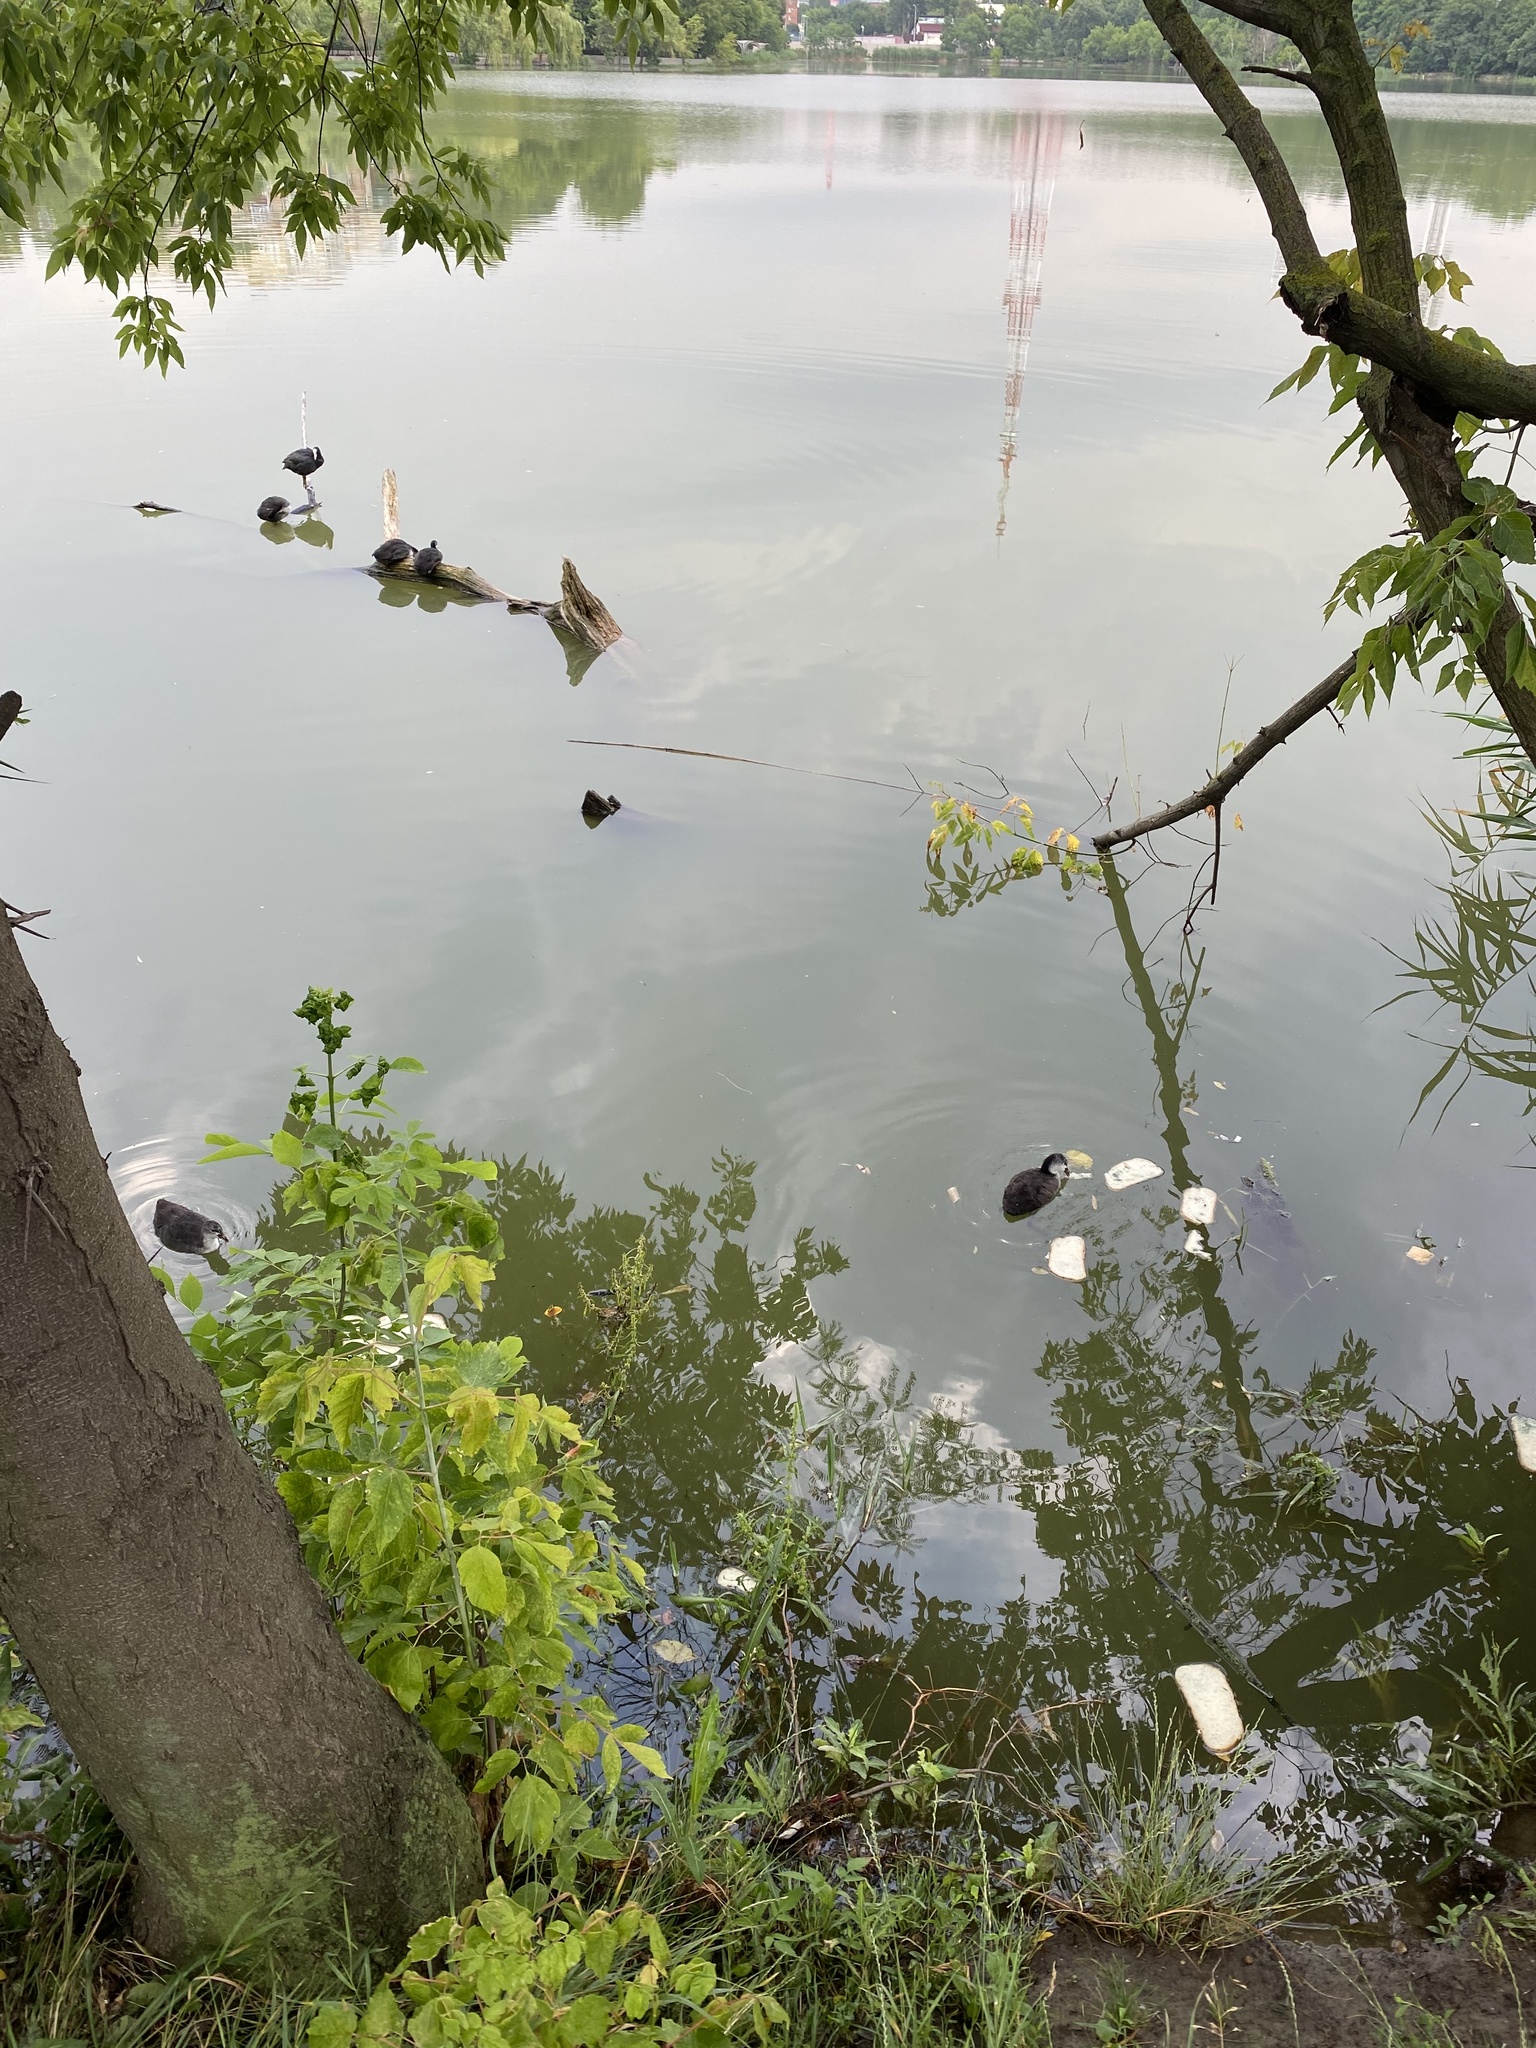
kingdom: Animalia
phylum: Chordata
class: Aves
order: Gruiformes
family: Rallidae
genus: Fulica
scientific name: Fulica atra
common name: Eurasian coot
